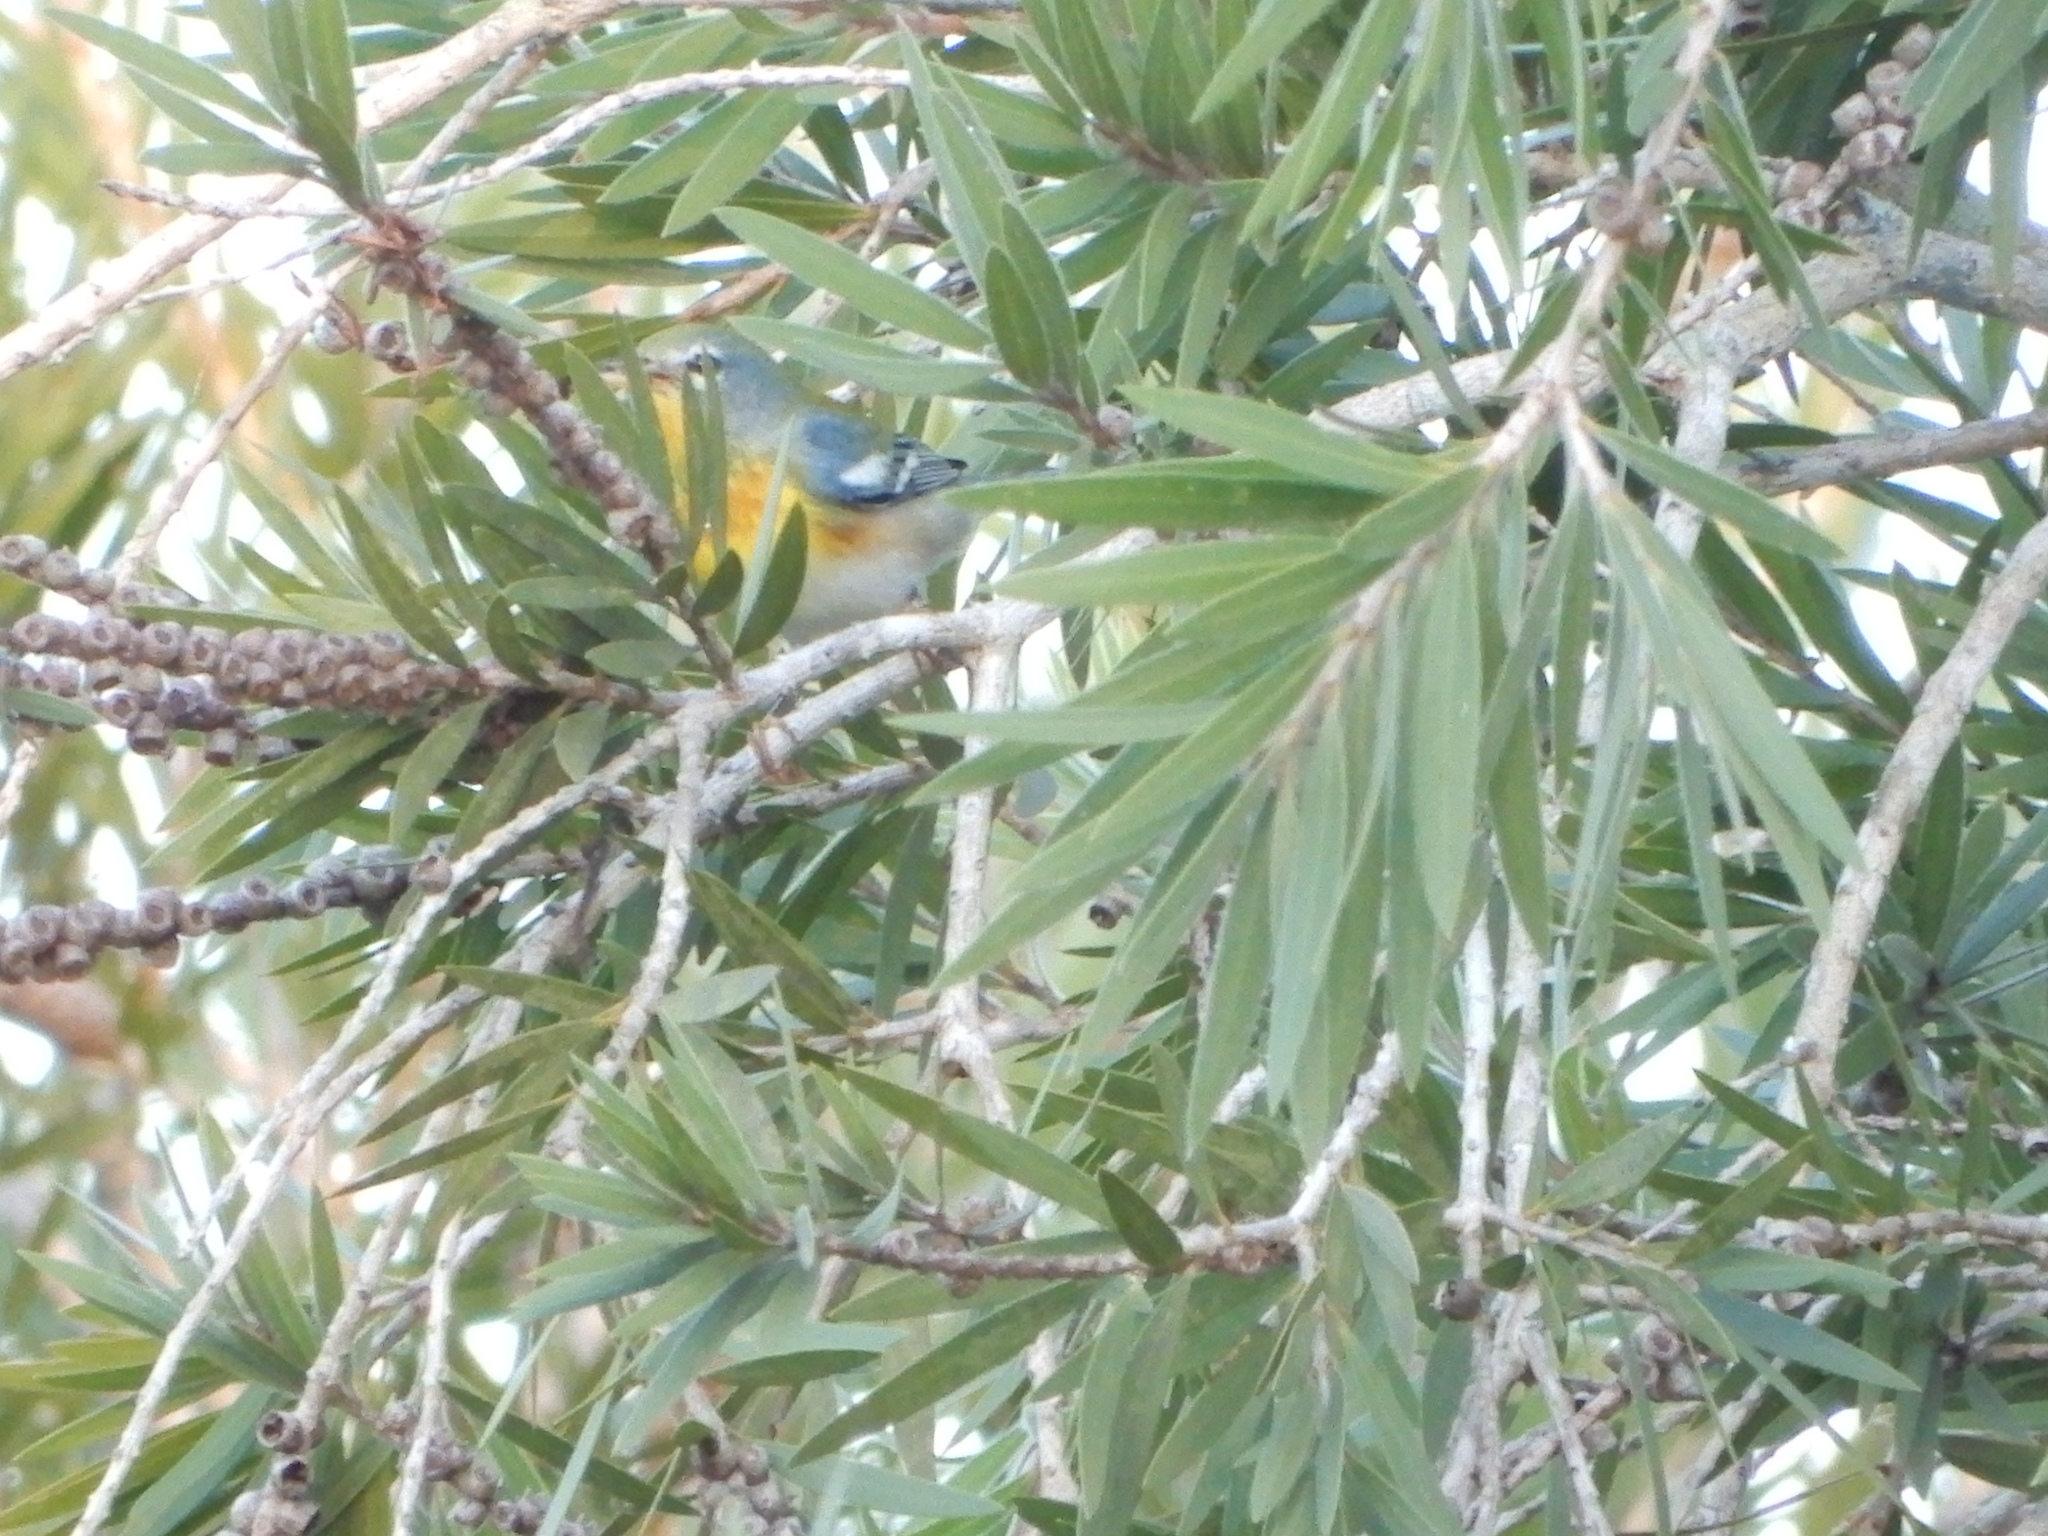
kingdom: Animalia
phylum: Chordata
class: Aves
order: Passeriformes
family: Parulidae
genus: Setophaga
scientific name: Setophaga americana
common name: Northern parula
